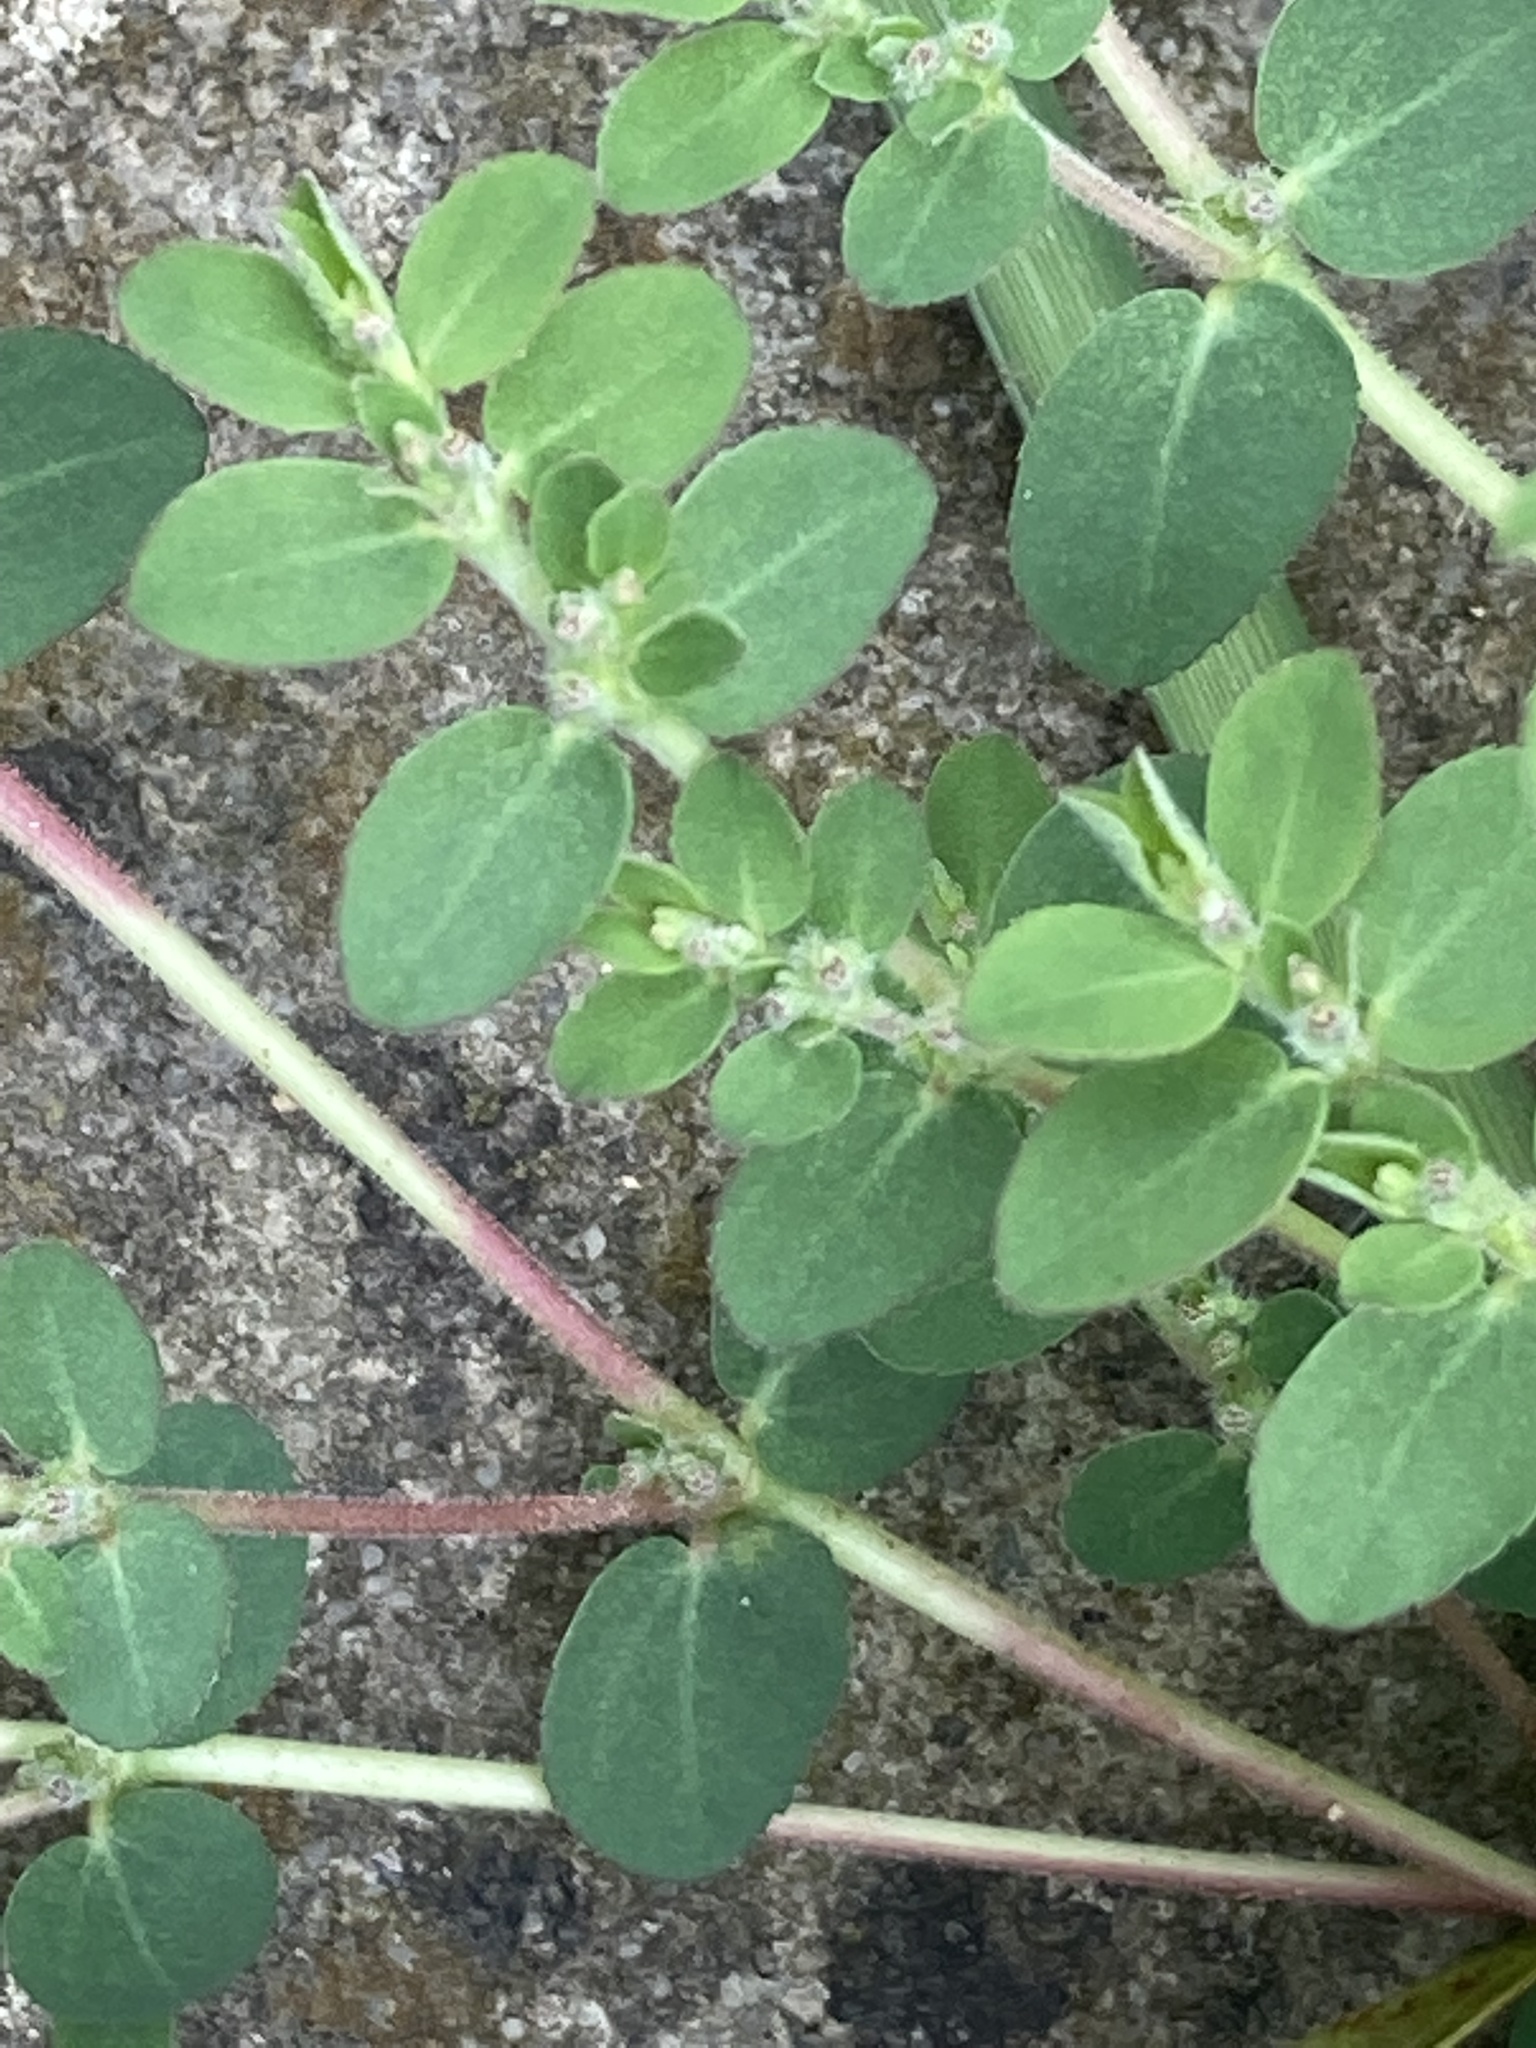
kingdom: Plantae
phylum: Tracheophyta
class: Magnoliopsida
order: Malpighiales
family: Euphorbiaceae
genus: Euphorbia
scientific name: Euphorbia prostrata
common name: Prostrate sandmat
